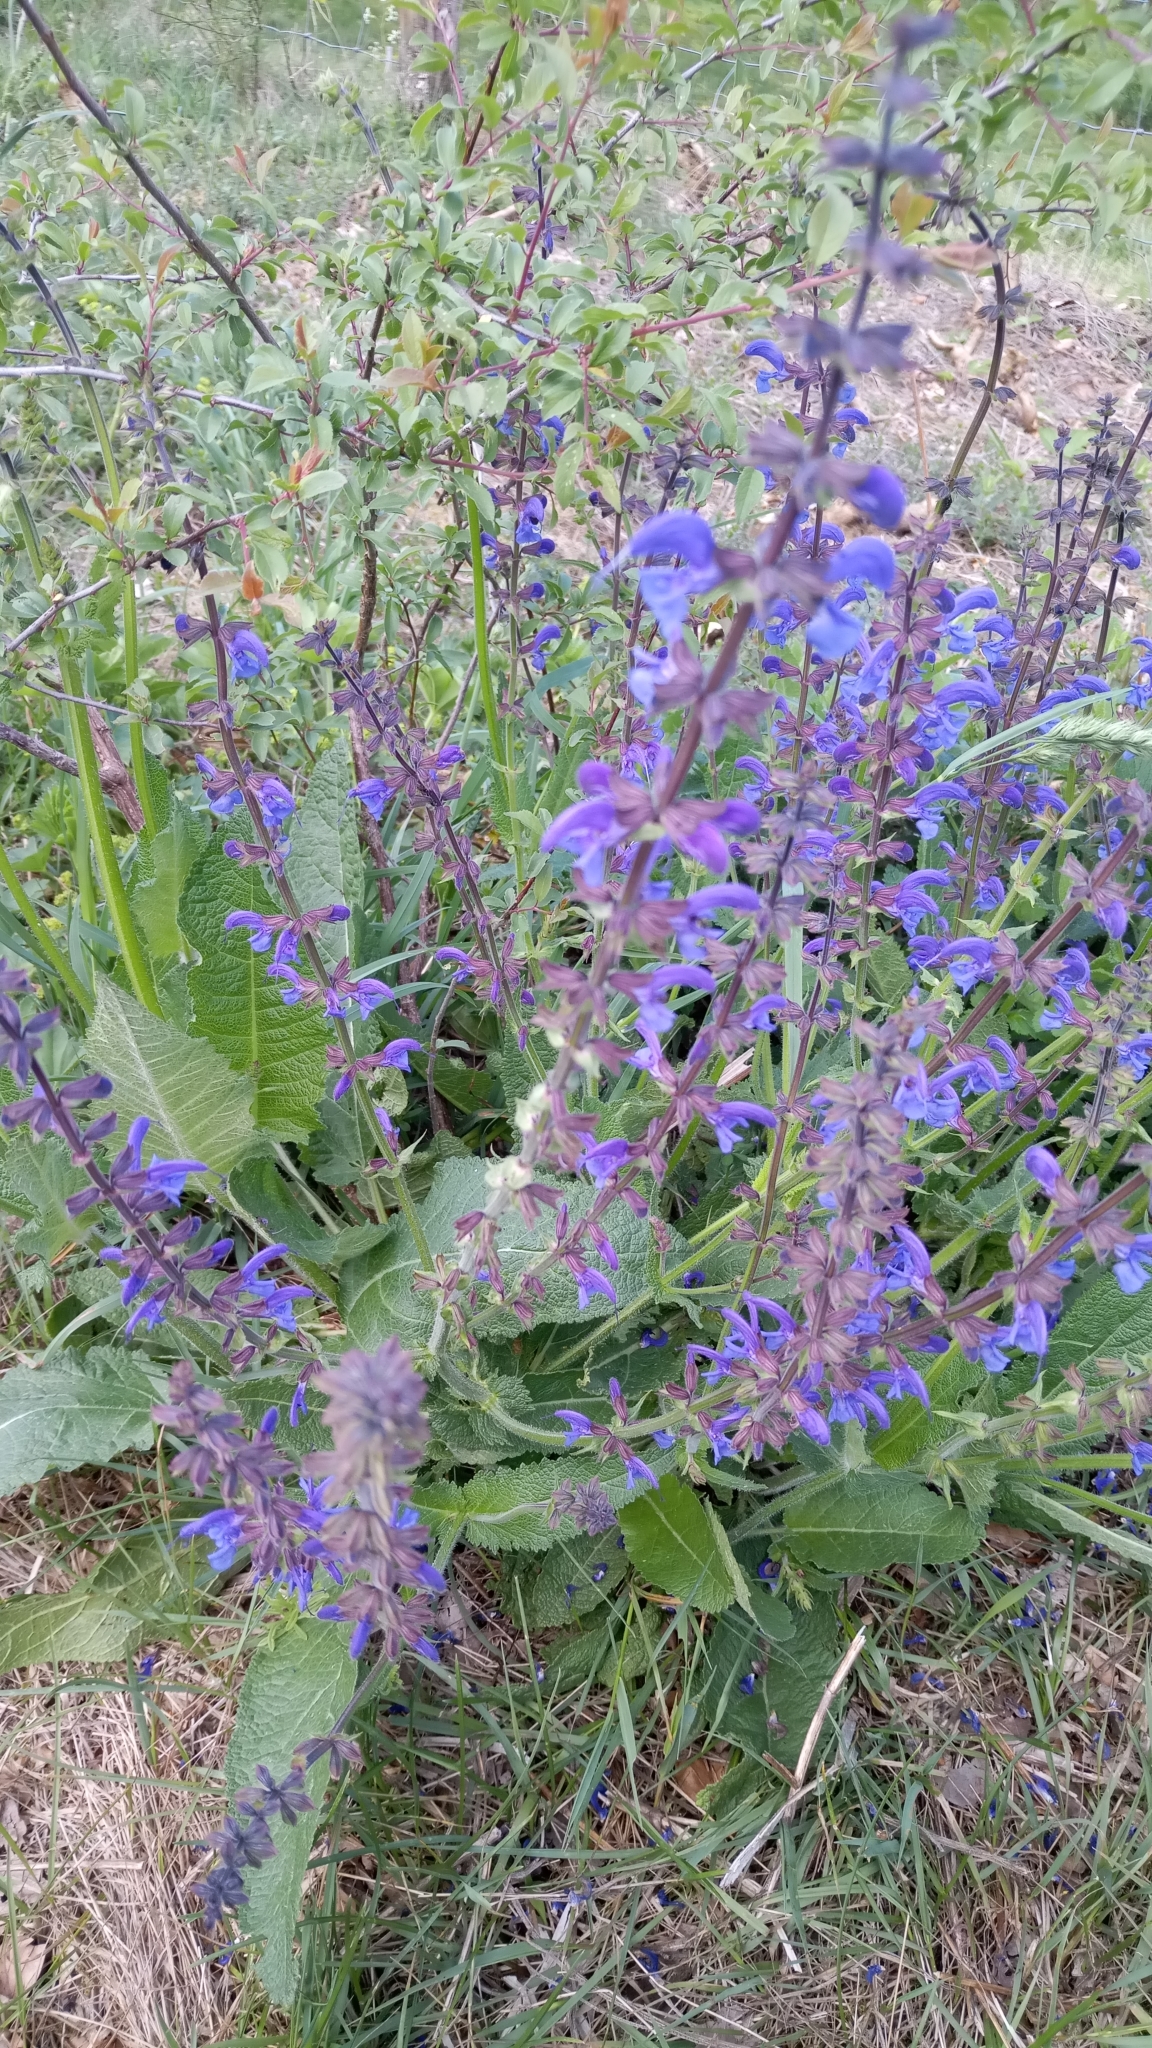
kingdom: Plantae
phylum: Tracheophyta
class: Magnoliopsida
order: Lamiales
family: Lamiaceae
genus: Salvia
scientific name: Salvia pratensis
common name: Meadow sage
